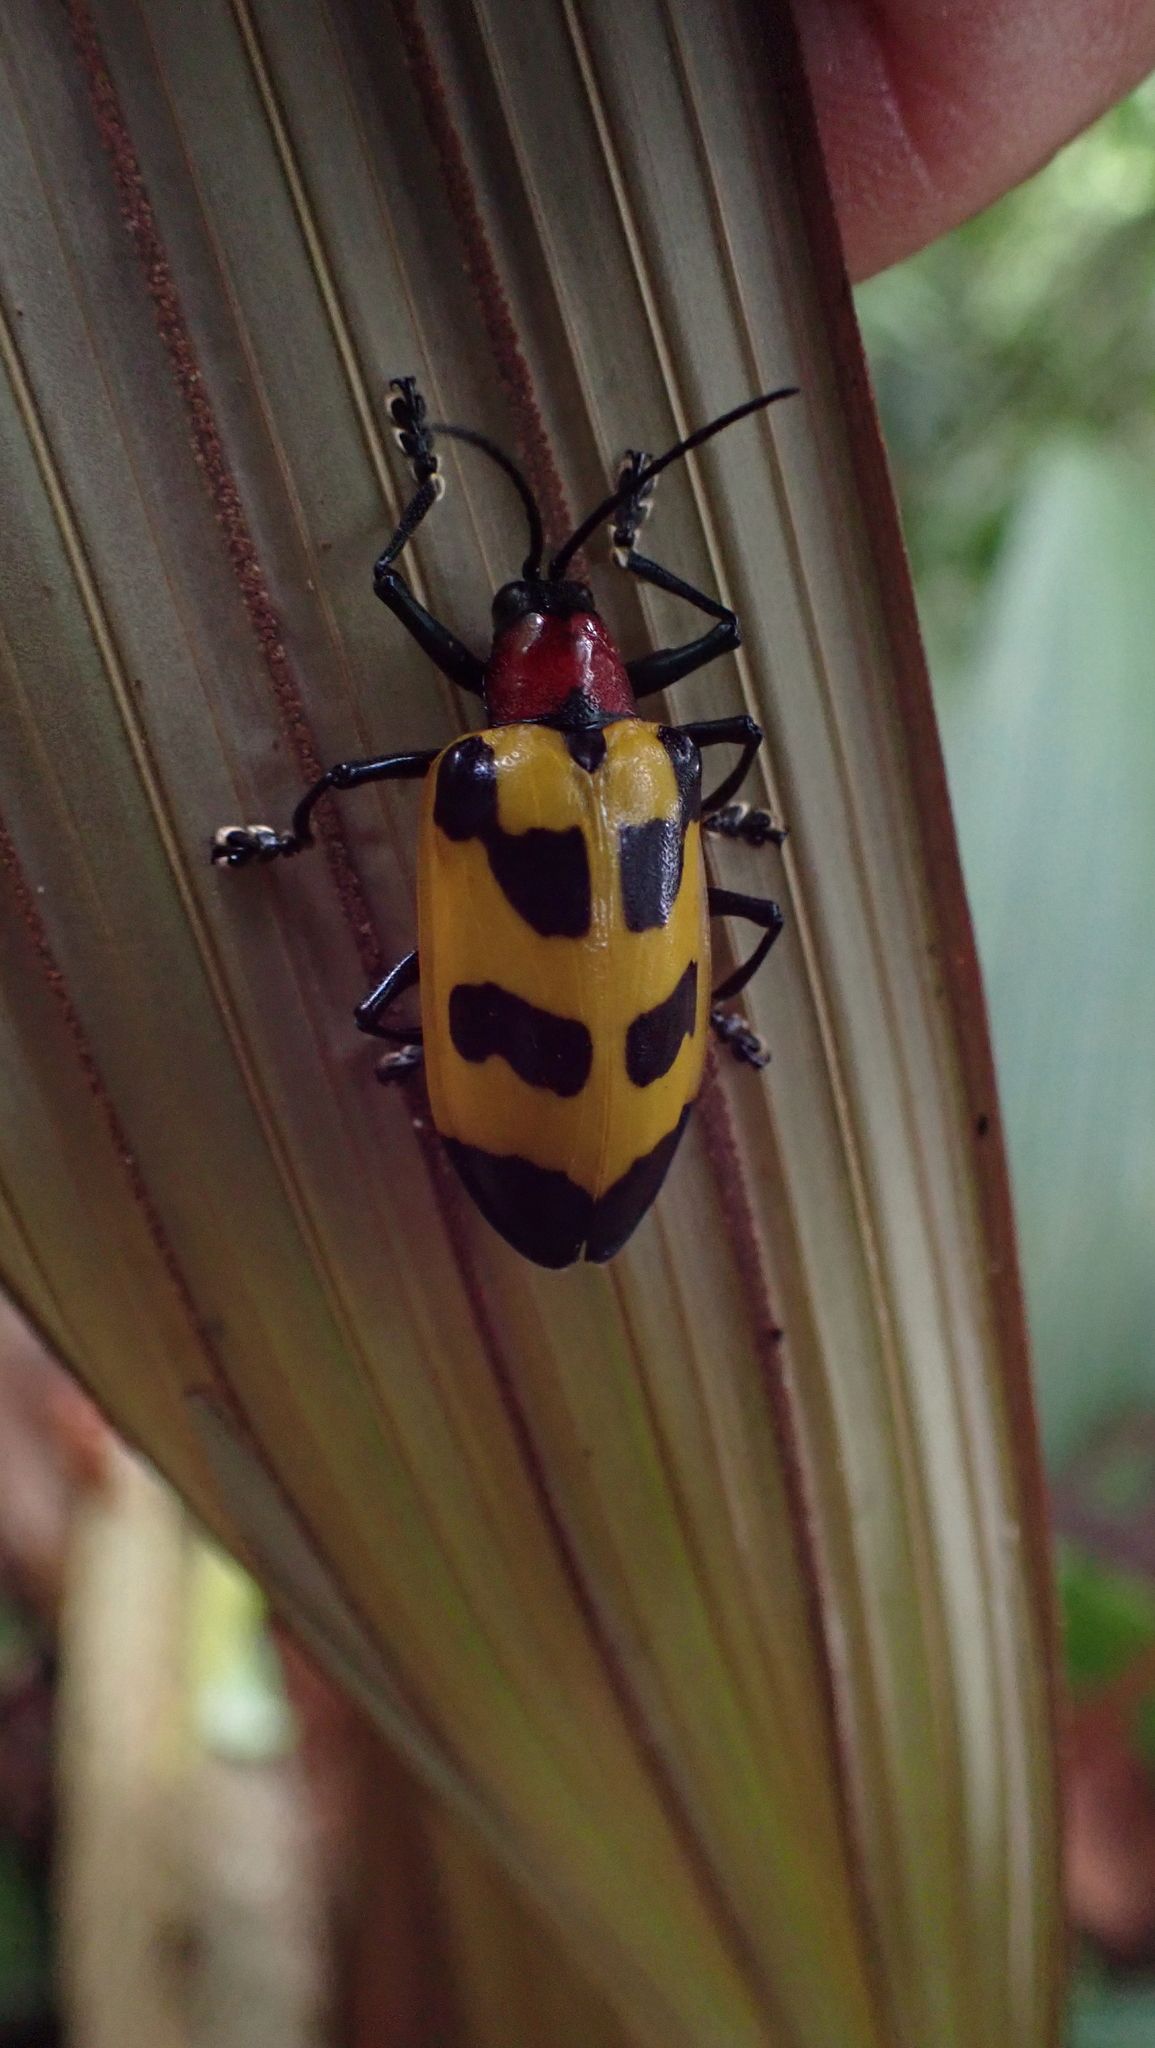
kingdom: Animalia
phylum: Arthropoda
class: Insecta
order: Coleoptera
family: Chrysomelidae
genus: Alurnus
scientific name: Alurnus ornatus
